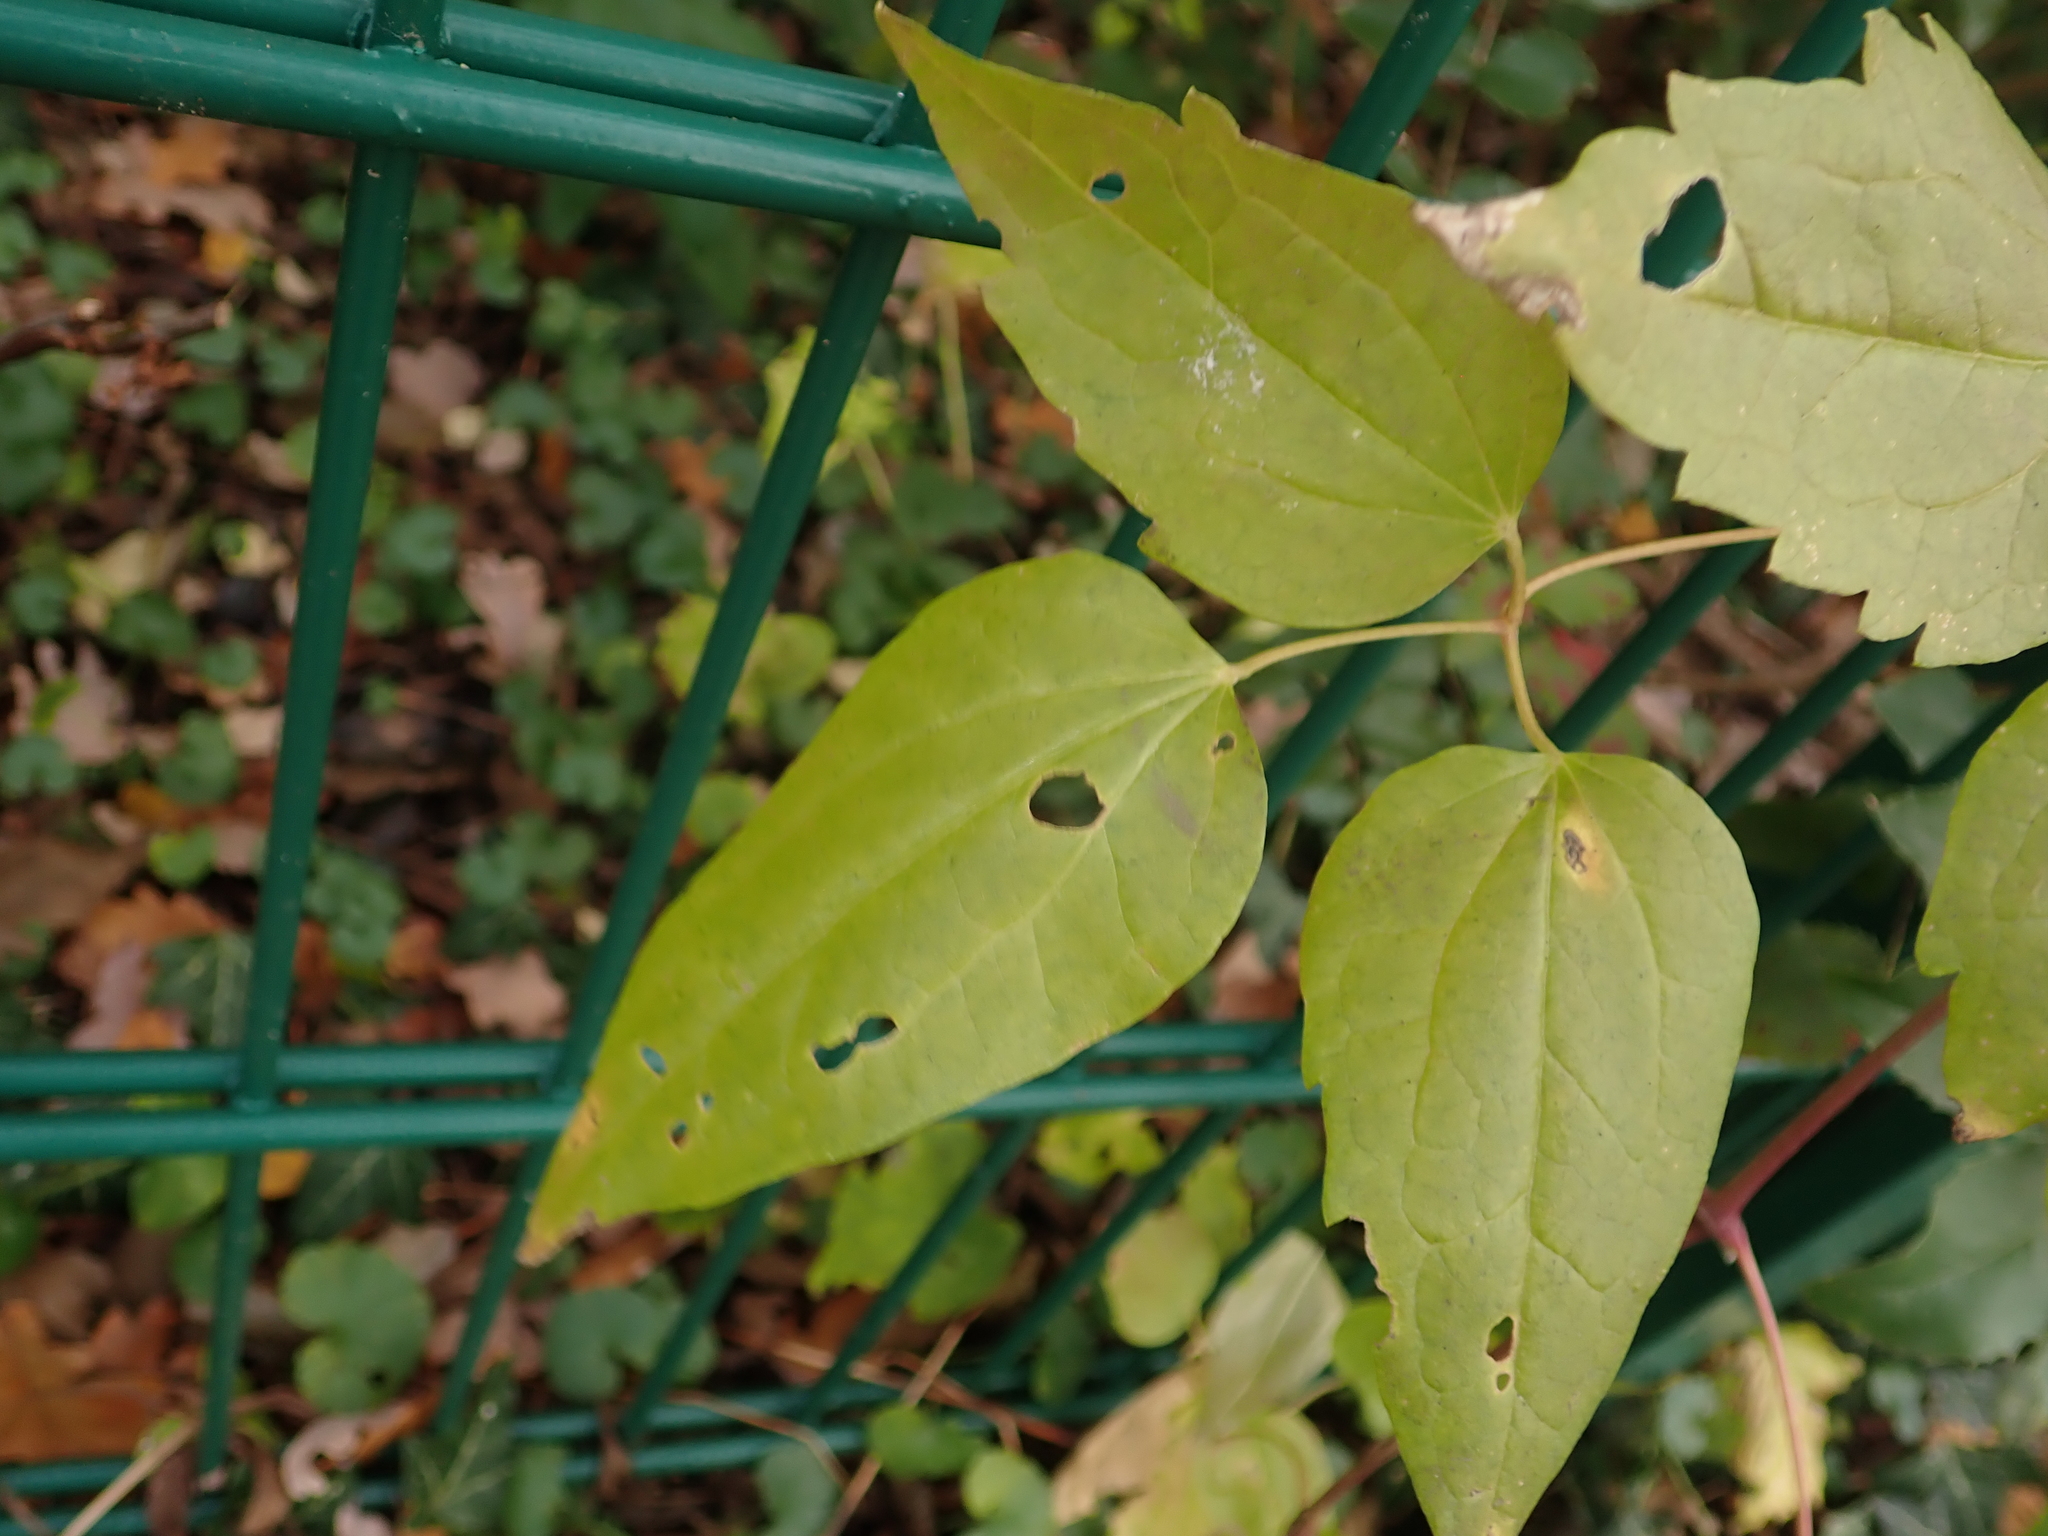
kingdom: Plantae
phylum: Tracheophyta
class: Magnoliopsida
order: Ranunculales
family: Ranunculaceae
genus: Clematis
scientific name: Clematis vitalba
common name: Evergreen clematis
